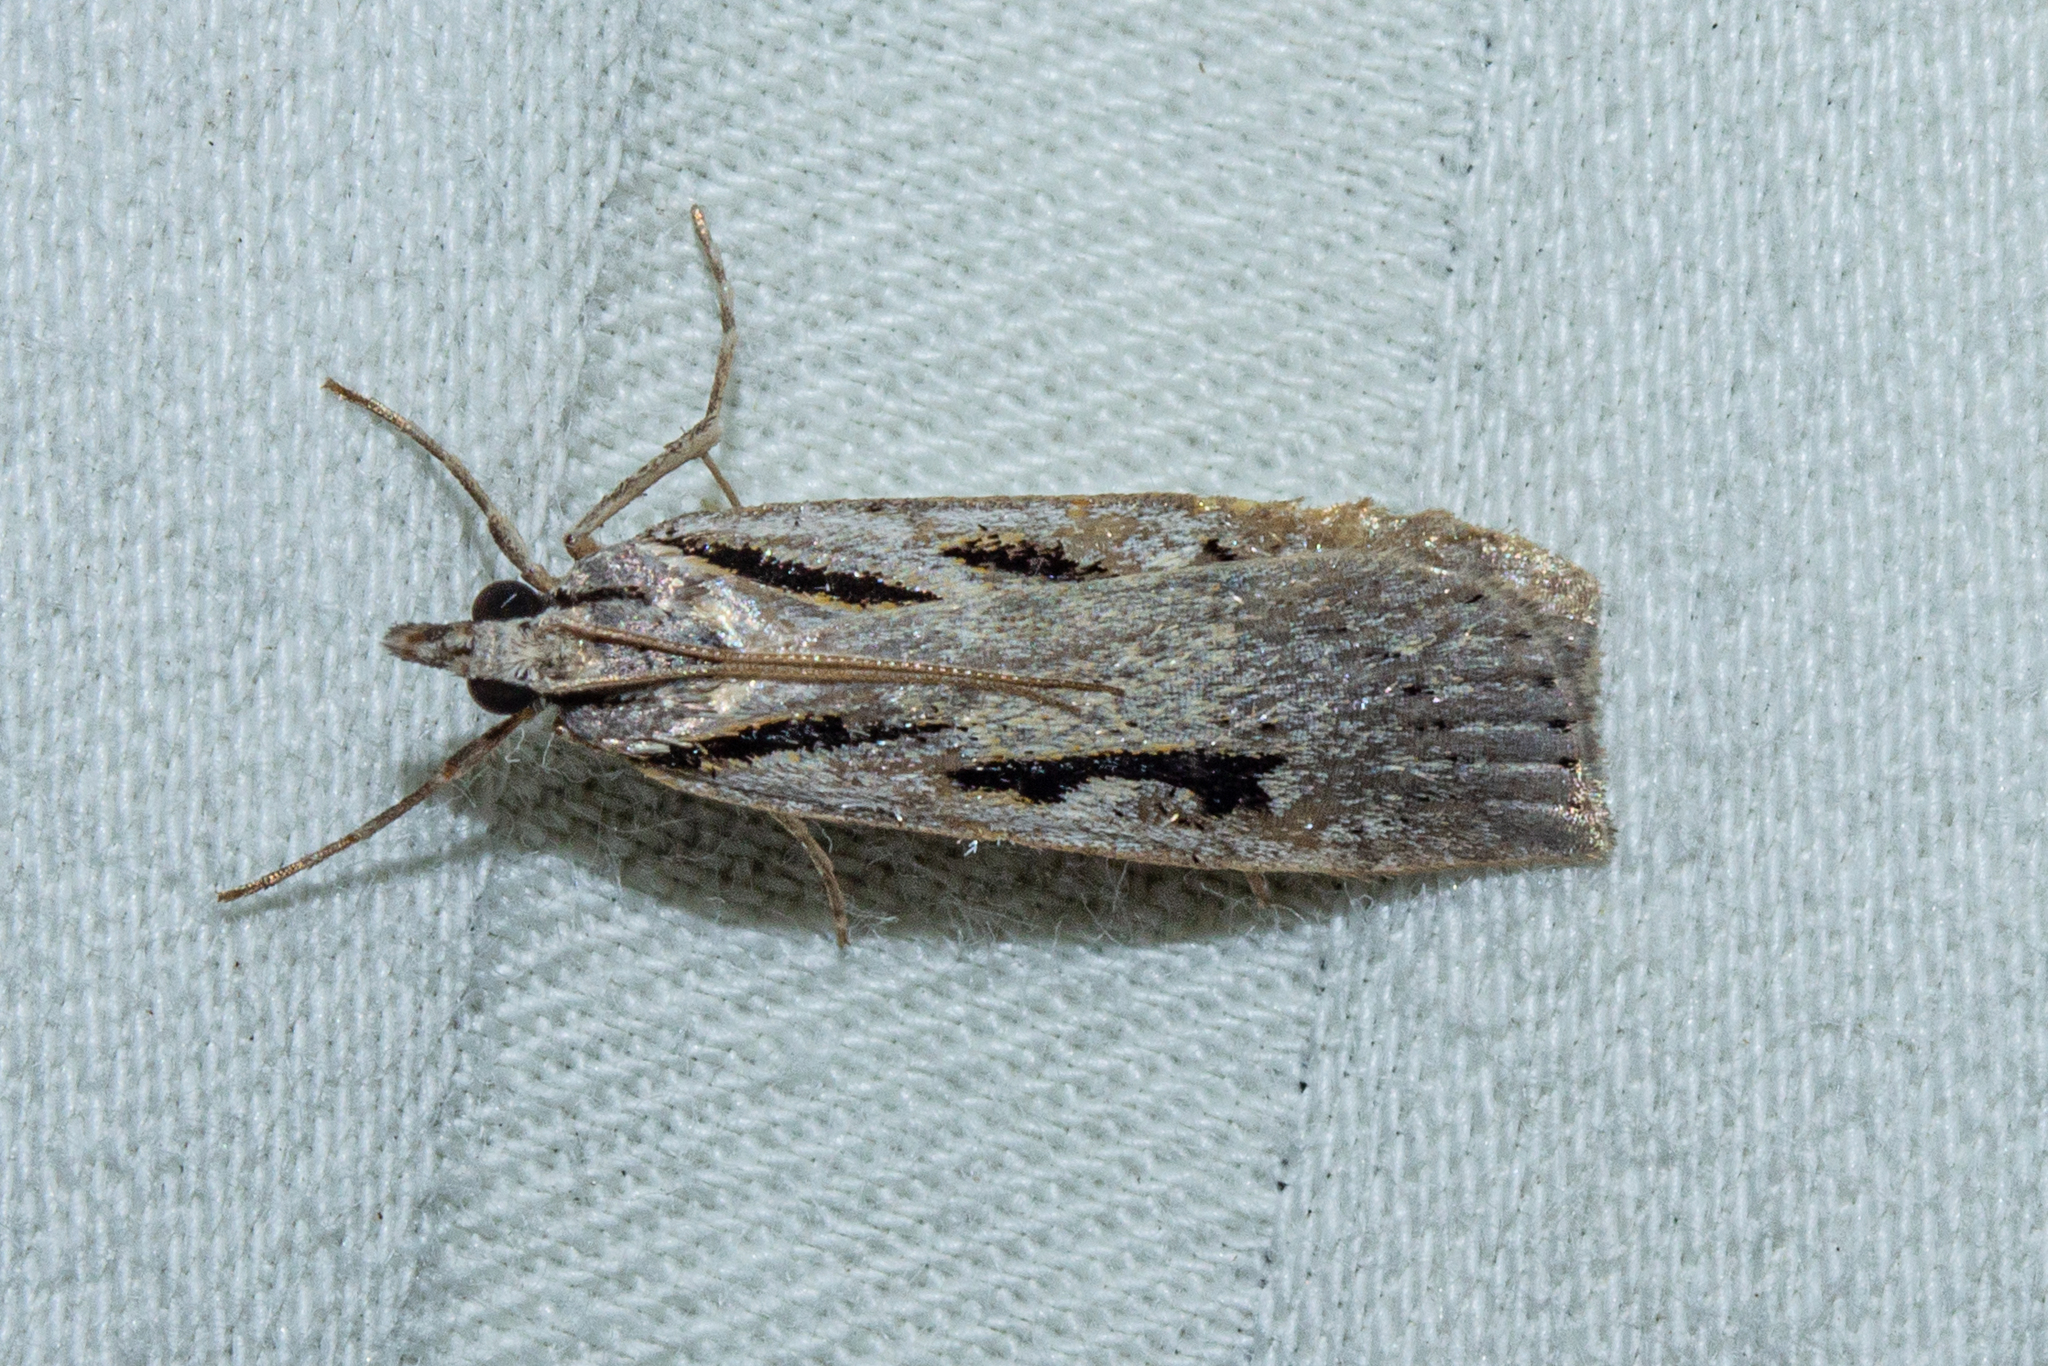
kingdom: Animalia
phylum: Arthropoda
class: Insecta
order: Lepidoptera
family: Crambidae
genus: Scoparia
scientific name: Scoparia rotuellus
